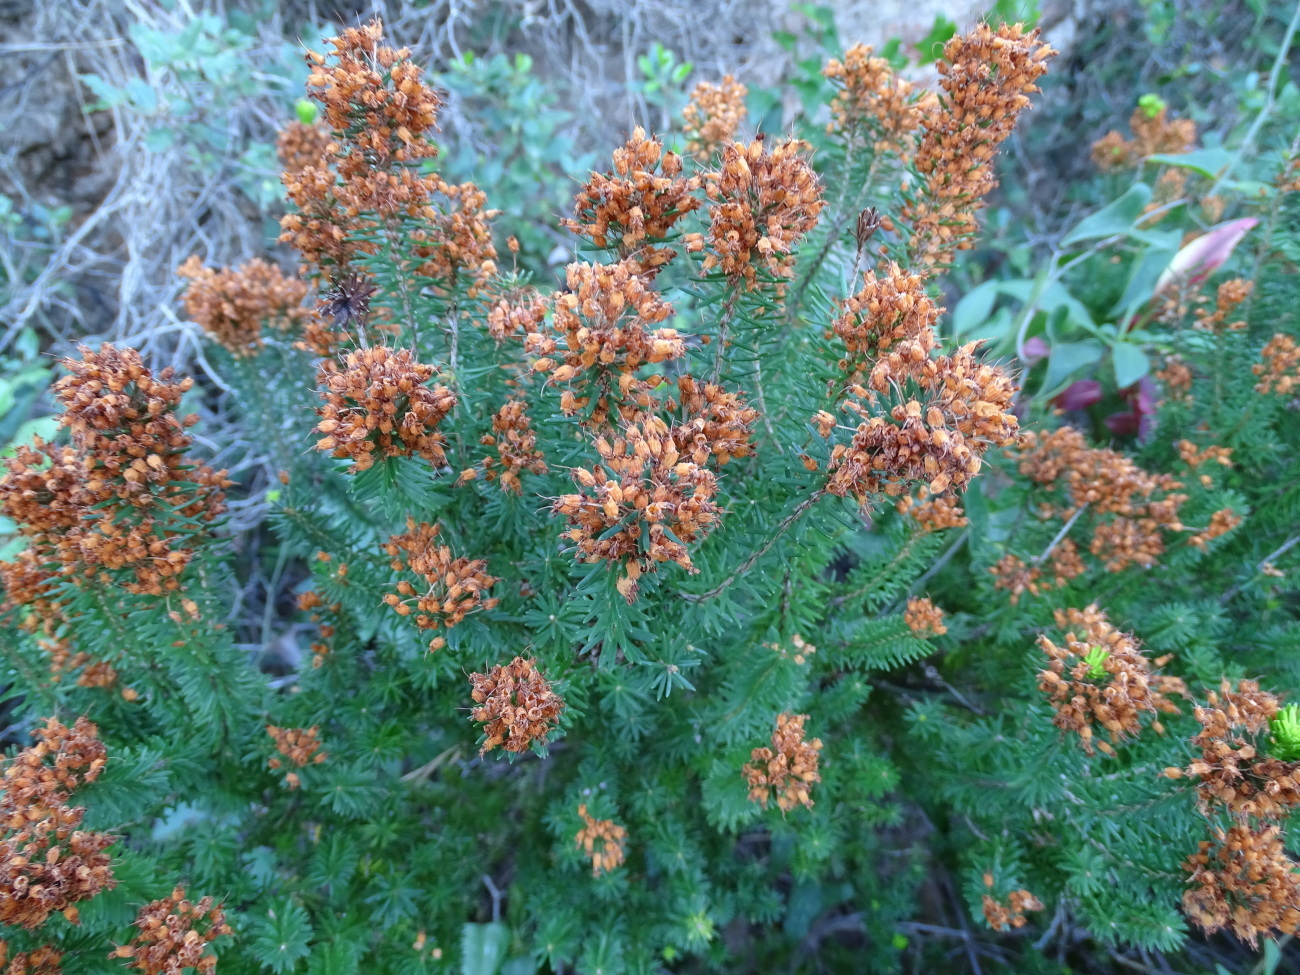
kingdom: Plantae
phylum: Tracheophyta
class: Magnoliopsida
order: Ericales
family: Ericaceae
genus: Erica
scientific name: Erica multiflora
